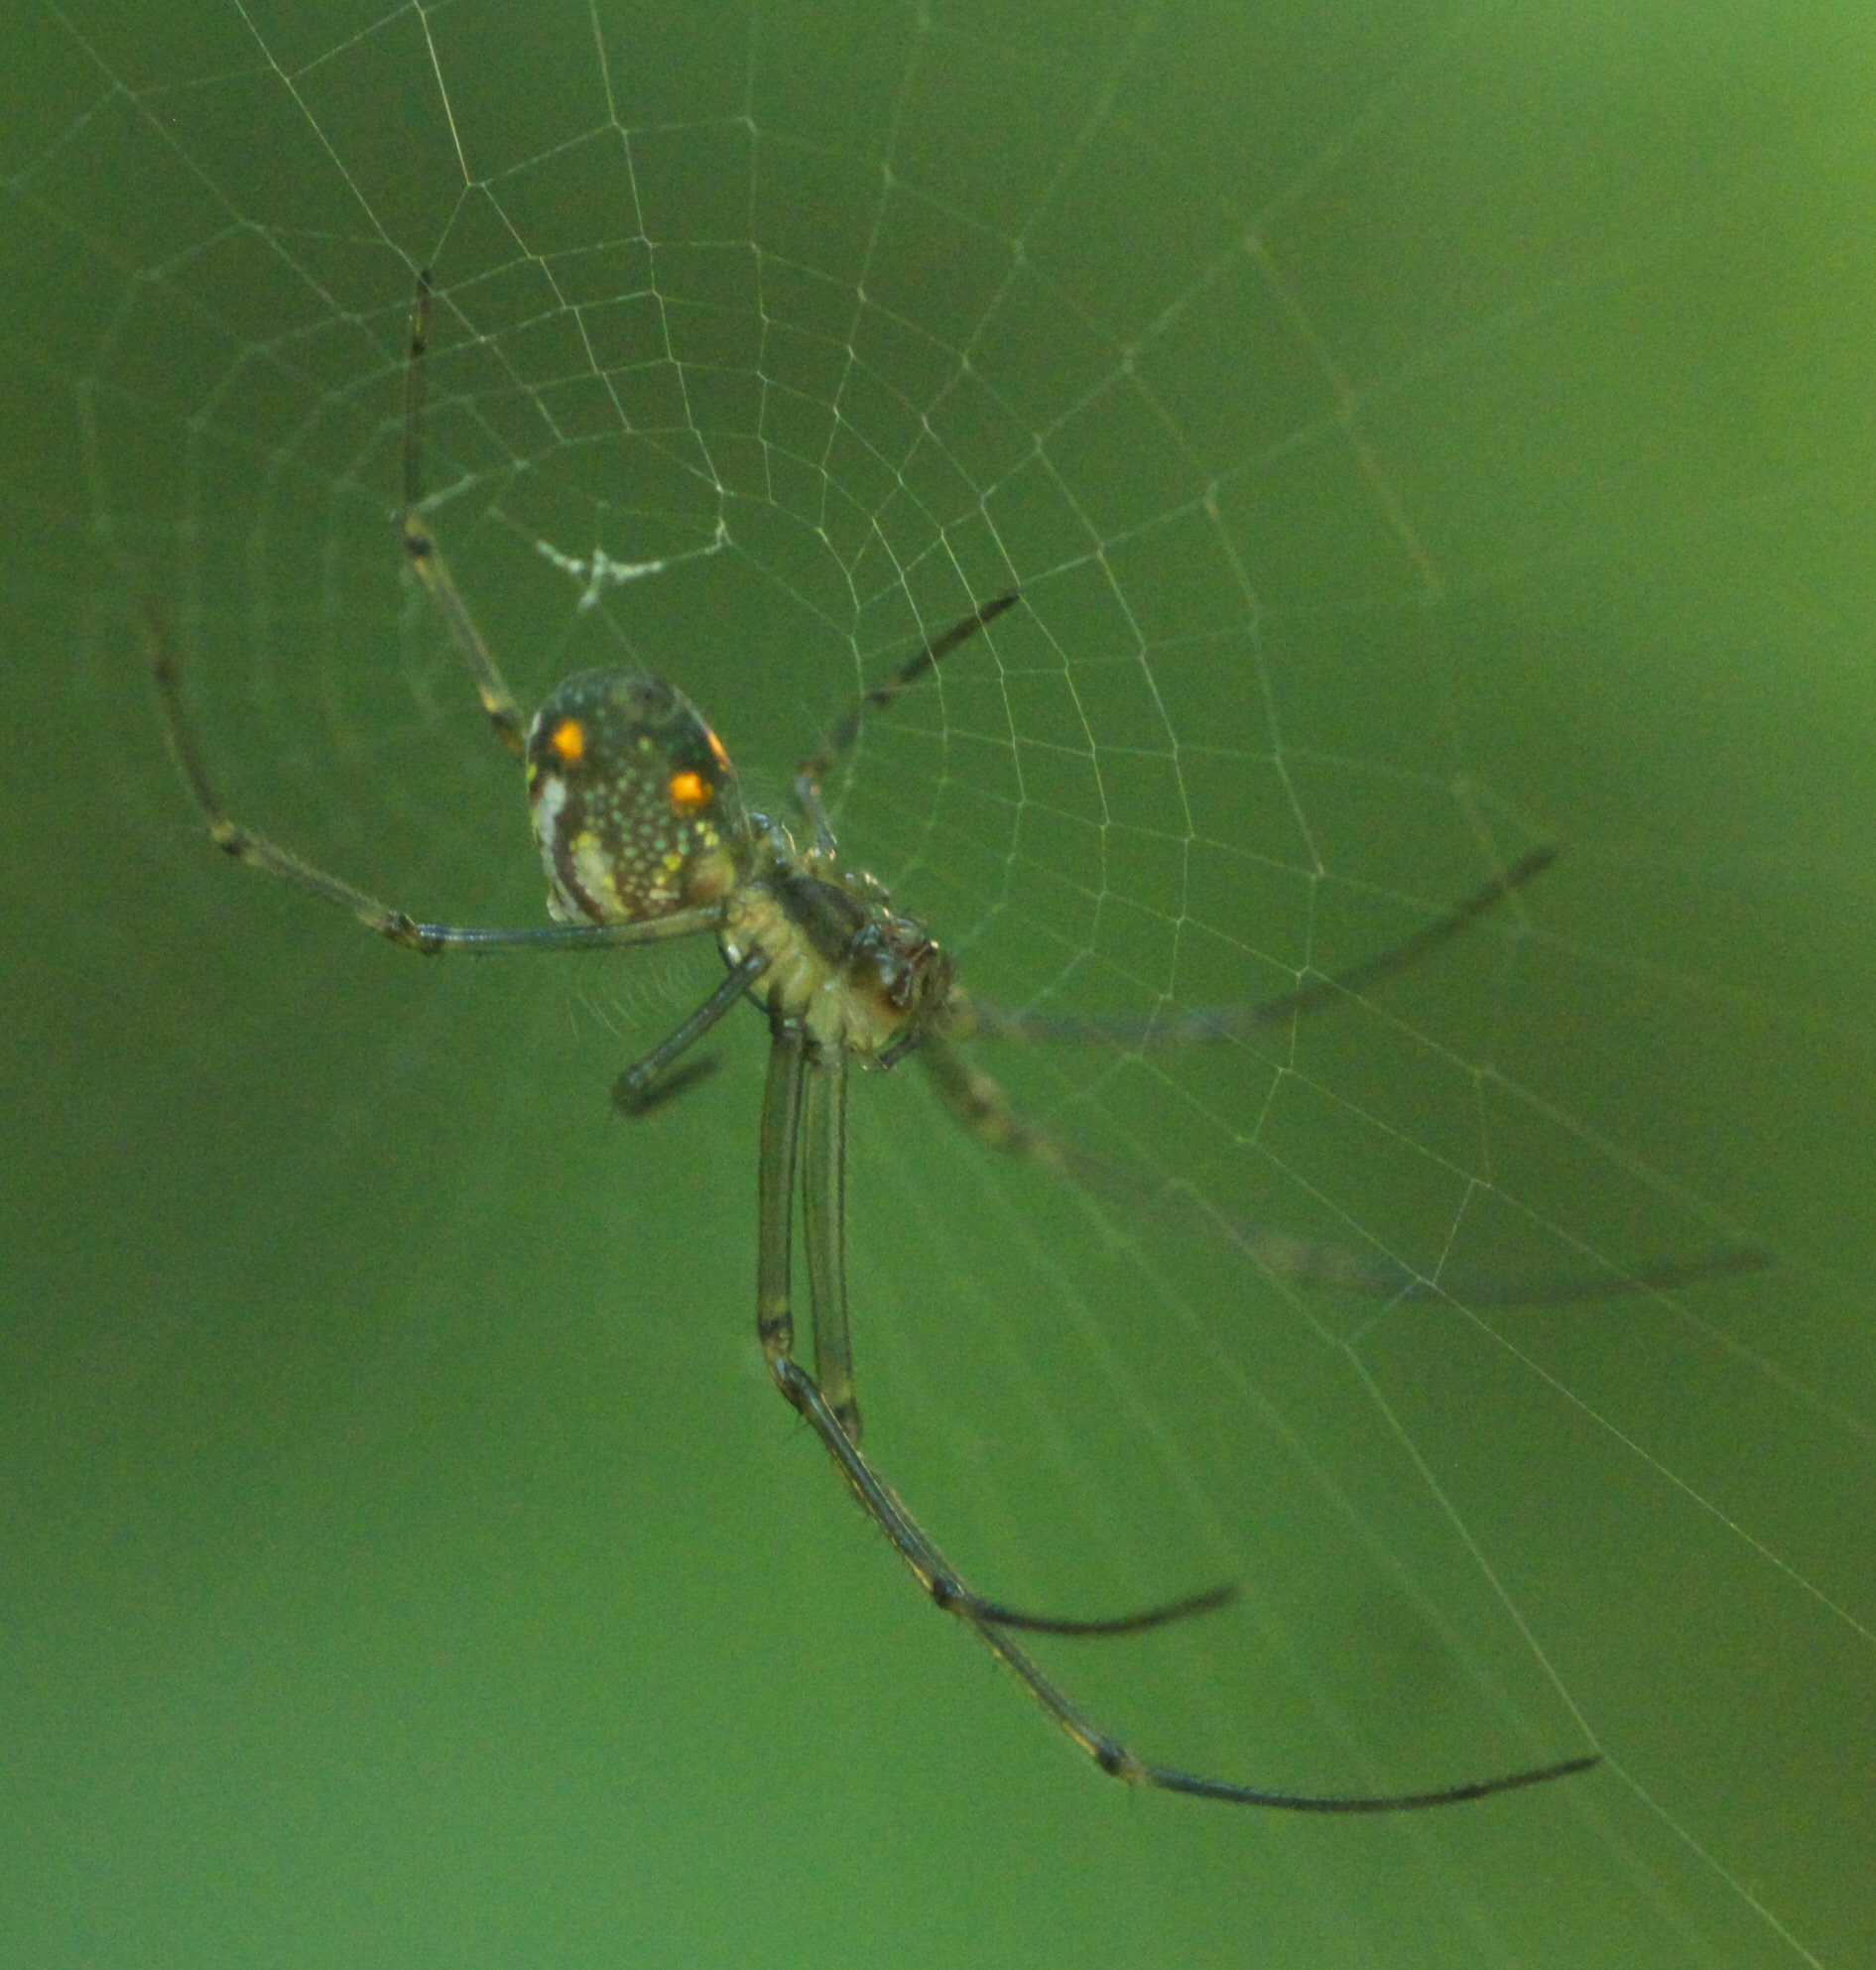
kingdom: Animalia
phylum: Arthropoda
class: Arachnida
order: Araneae
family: Tetragnathidae
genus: Leucauge
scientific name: Leucauge regnyi
